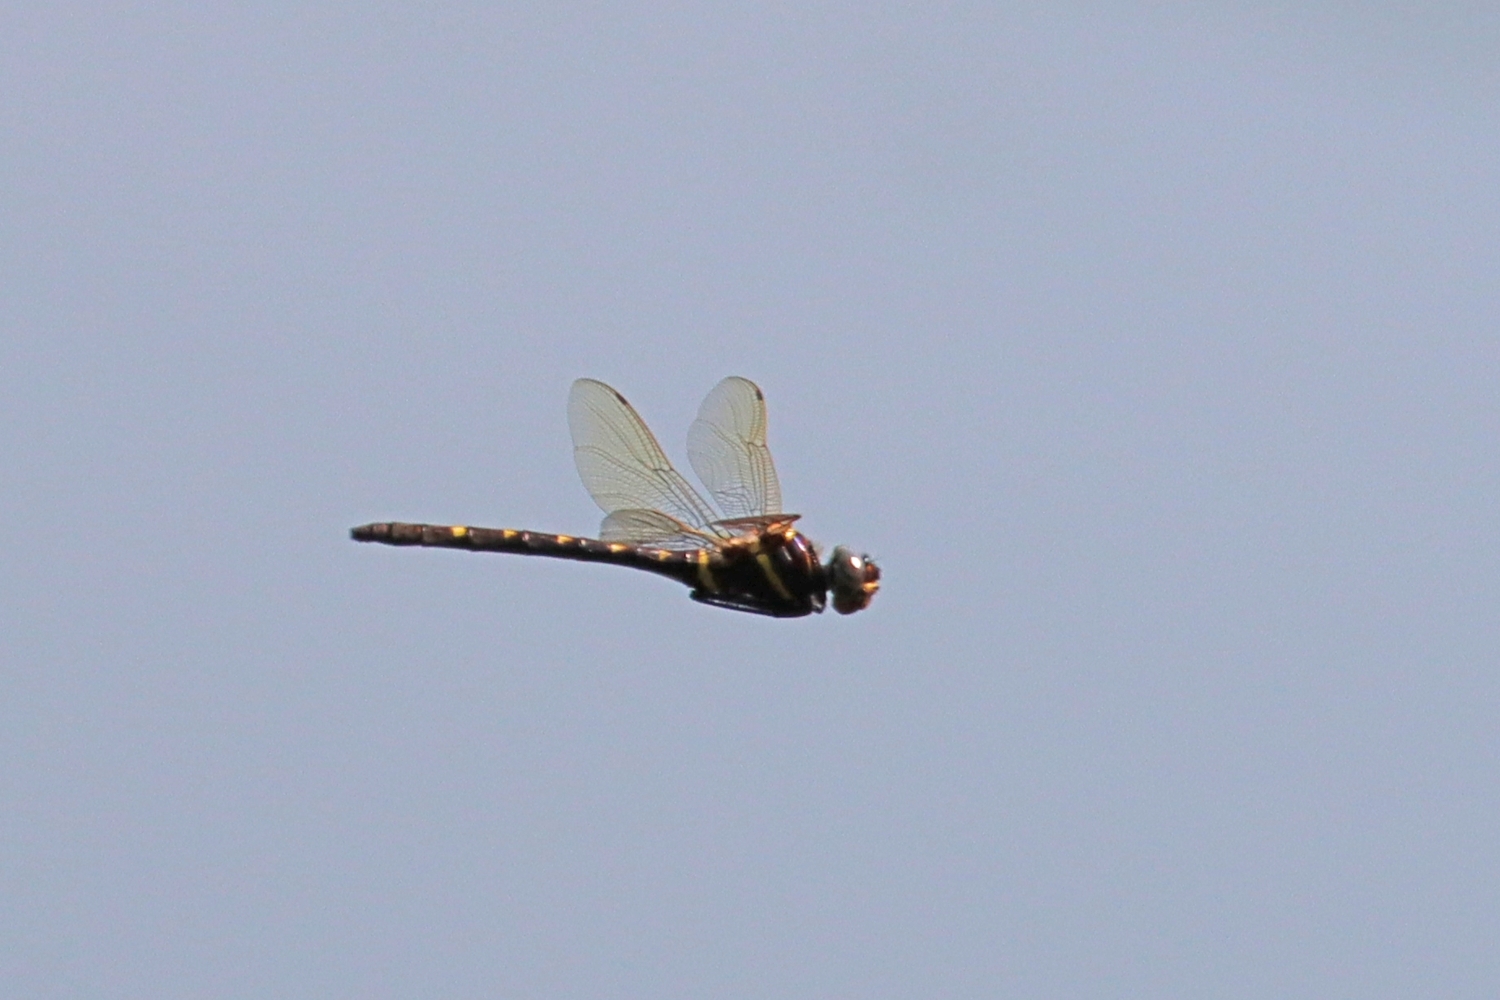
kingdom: Animalia
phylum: Arthropoda
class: Insecta
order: Odonata
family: Macromiidae
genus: Macromia
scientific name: Macromia taeniolata
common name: Royal river cruiser
